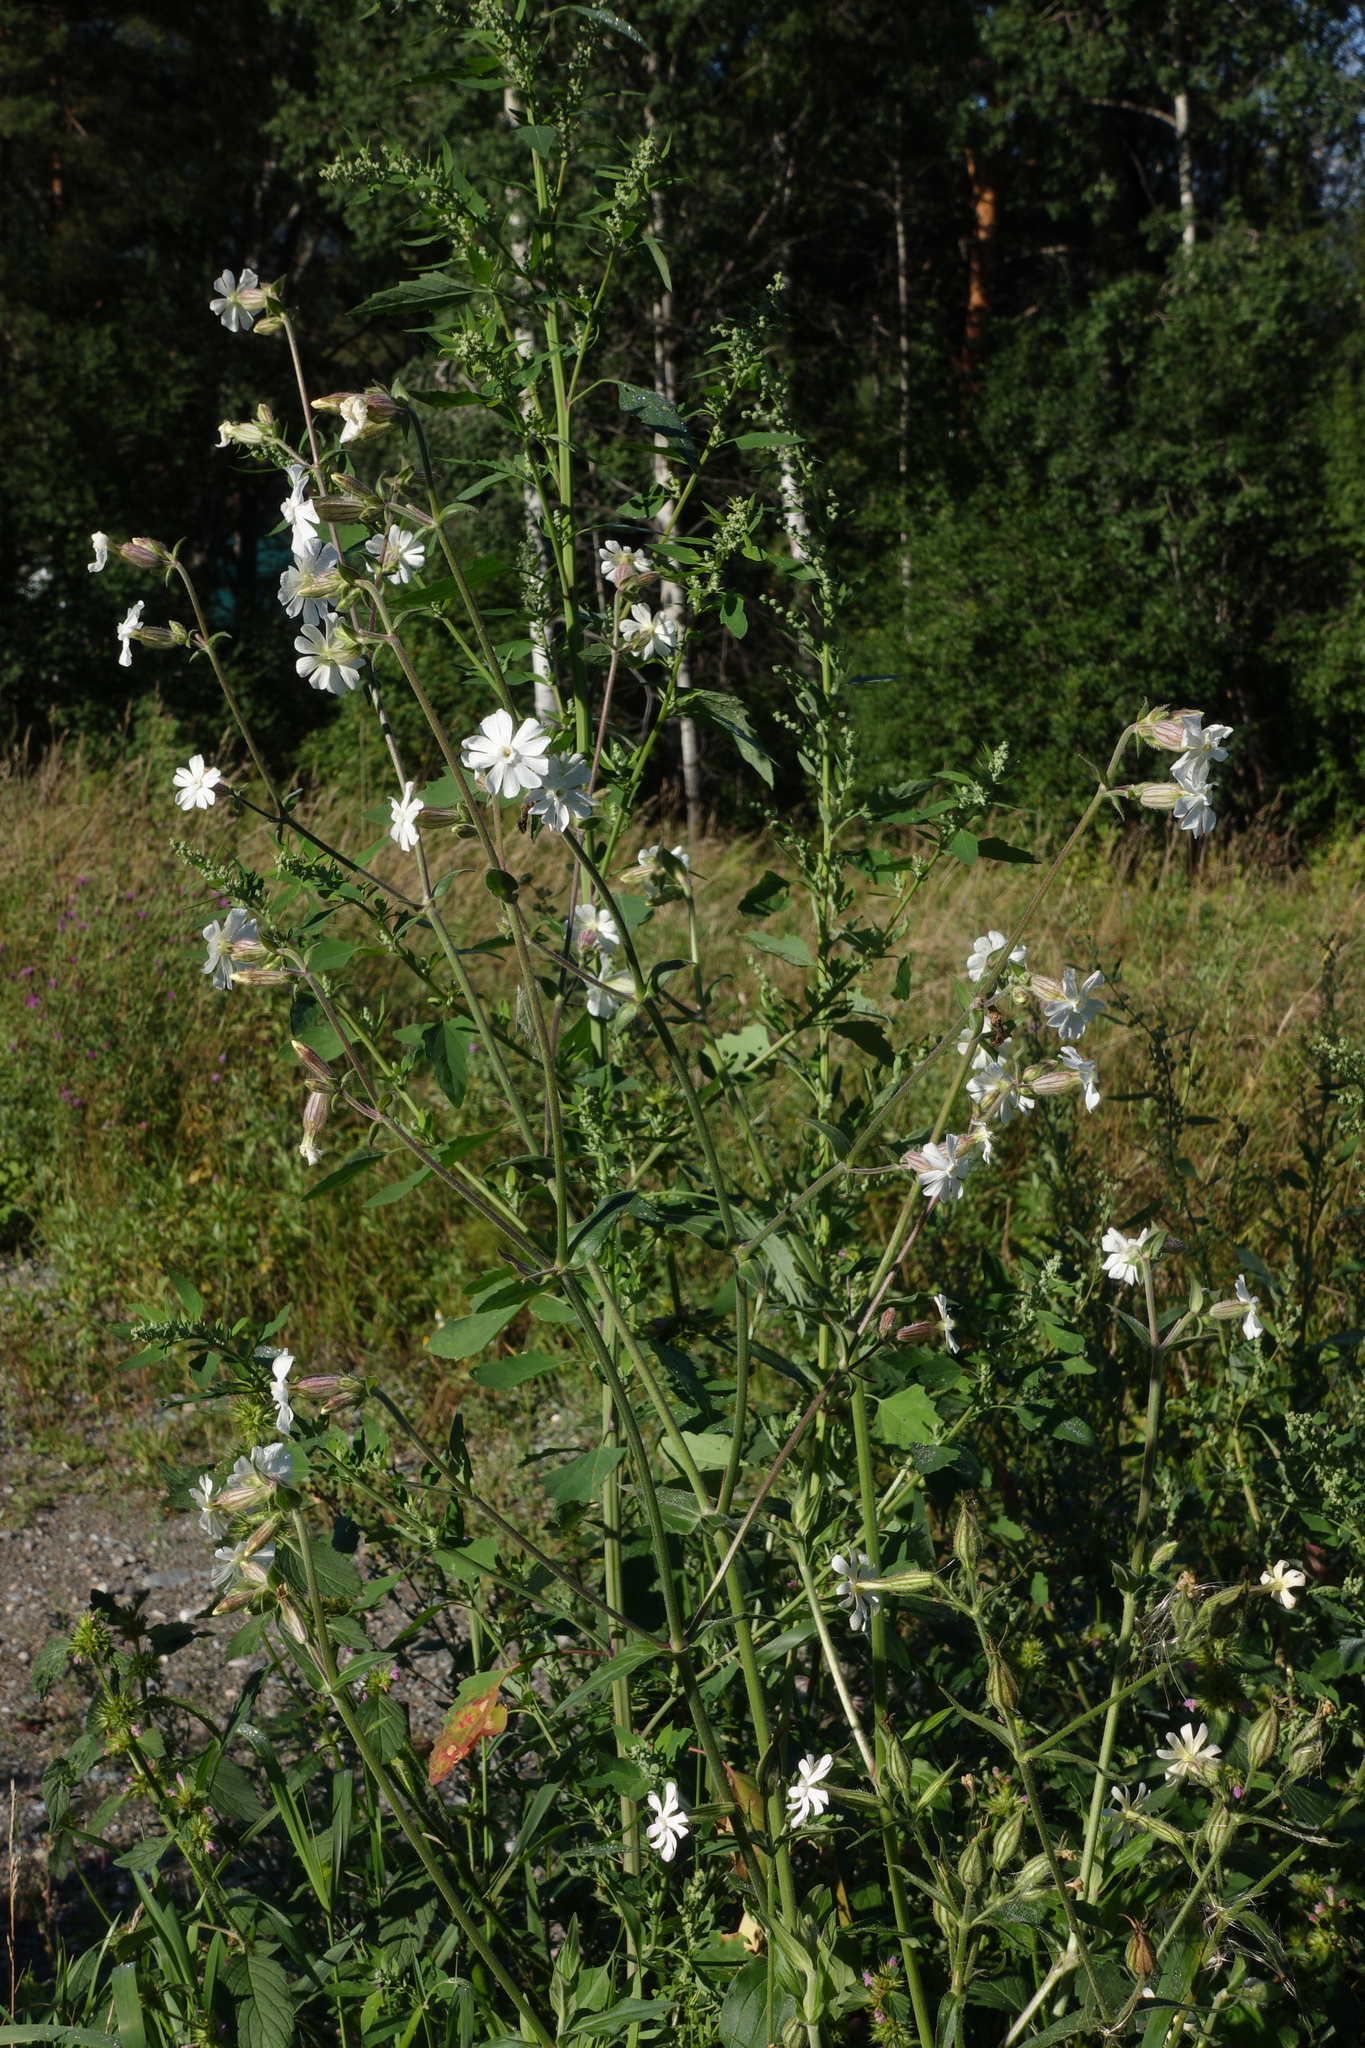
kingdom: Plantae
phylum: Tracheophyta
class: Magnoliopsida
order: Caryophyllales
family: Caryophyllaceae
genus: Silene
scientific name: Silene latifolia
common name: White campion
